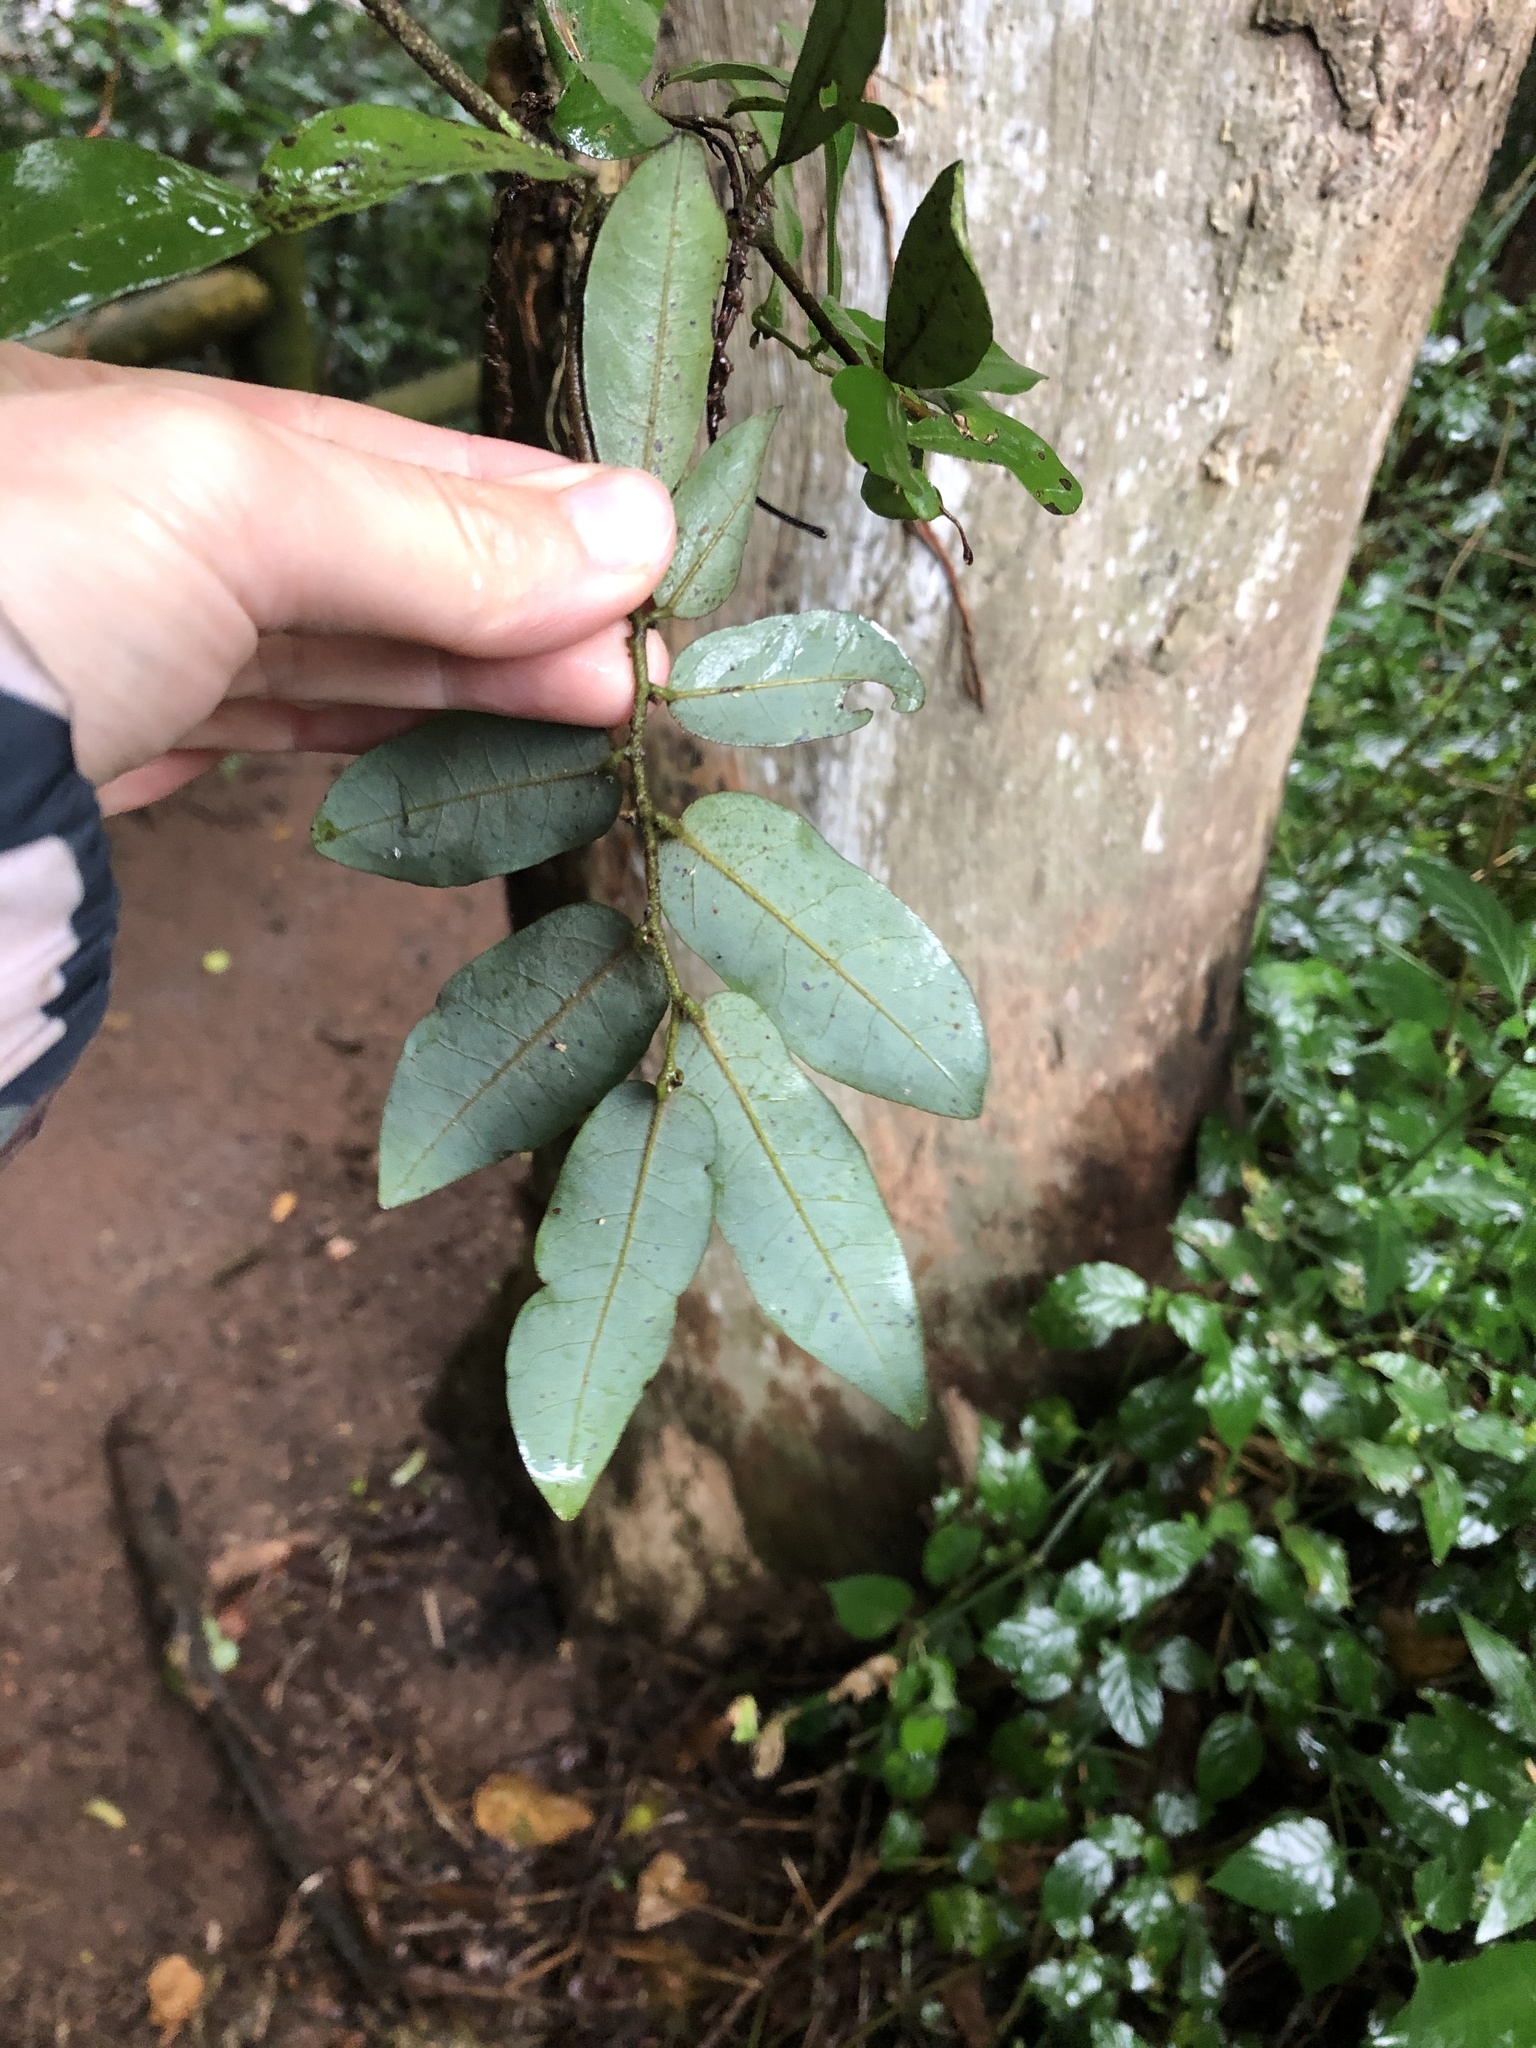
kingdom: Plantae
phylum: Tracheophyta
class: Magnoliopsida
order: Magnoliales
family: Annonaceae
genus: Monanthotaxis
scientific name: Monanthotaxis caffra
